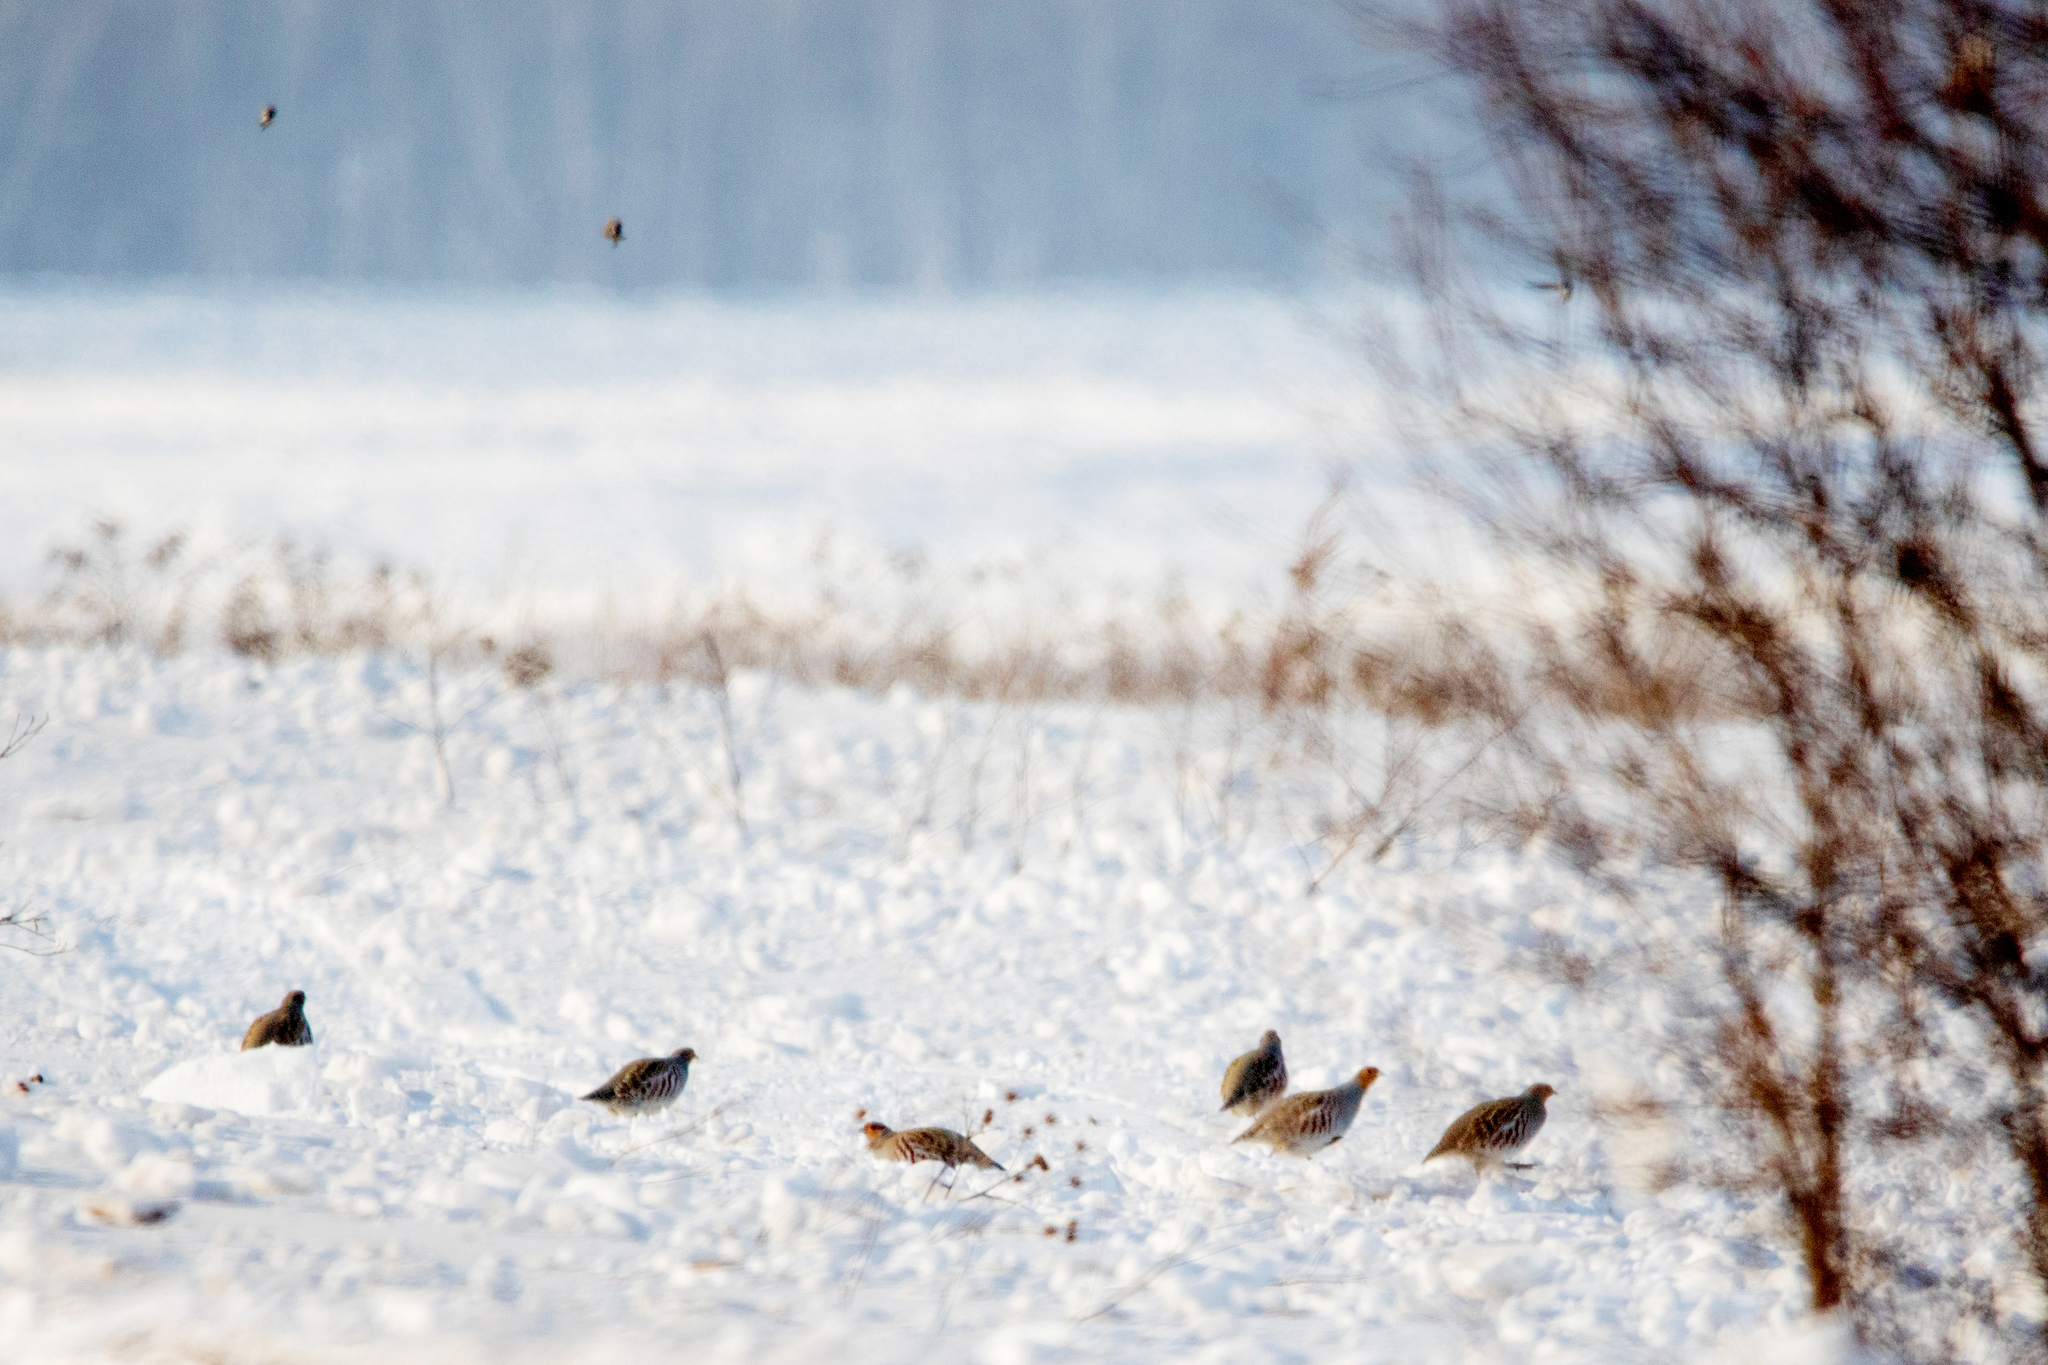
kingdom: Animalia
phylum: Chordata
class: Aves
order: Galliformes
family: Phasianidae
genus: Perdix
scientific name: Perdix perdix
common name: Grey partridge
